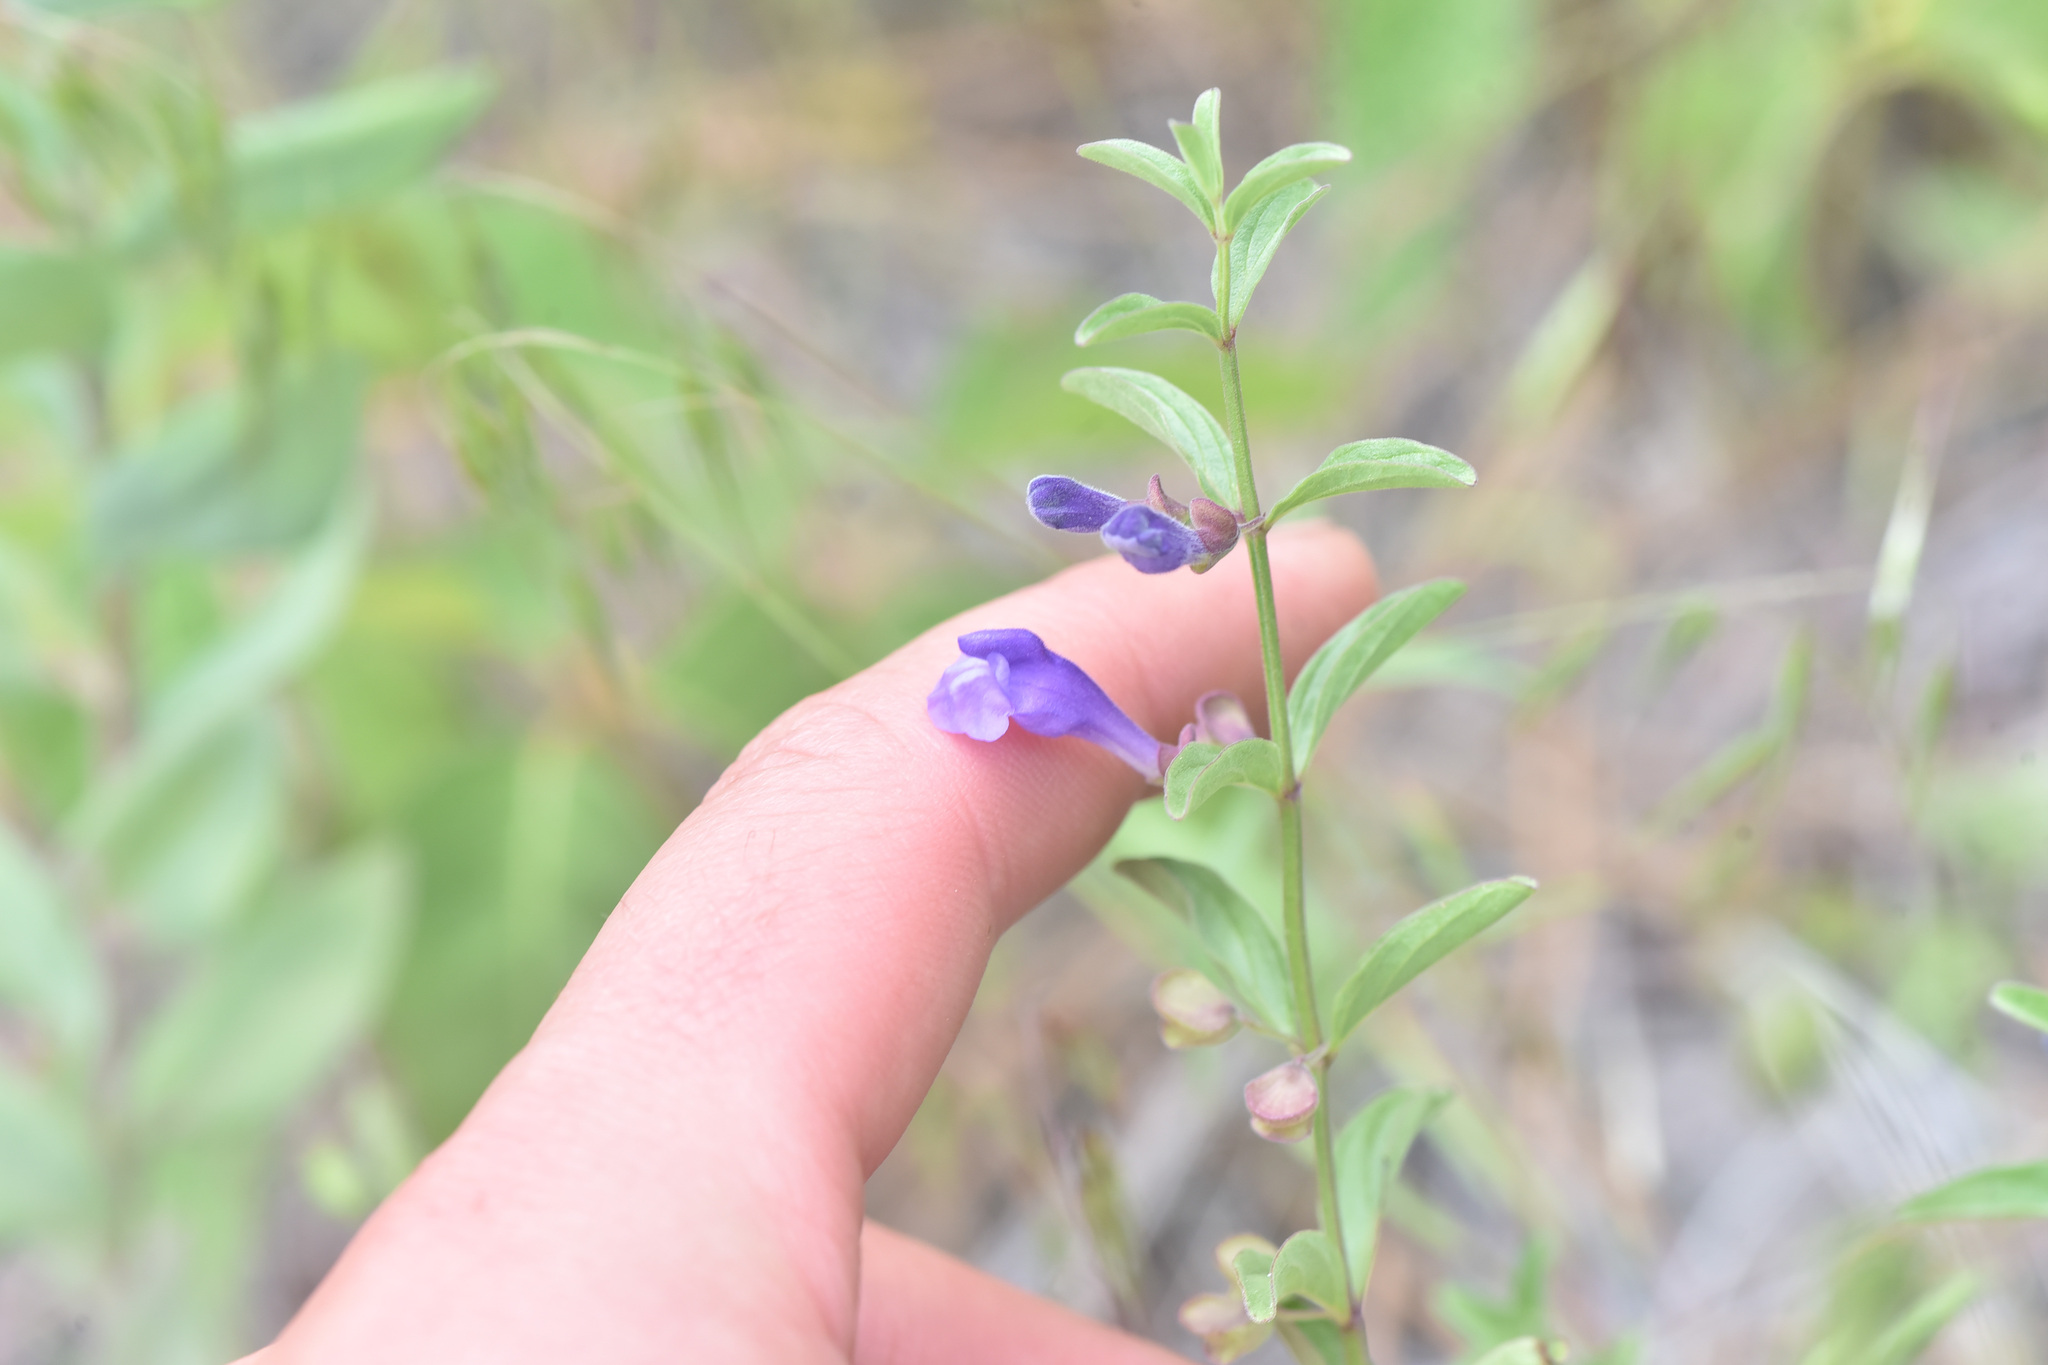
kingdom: Plantae
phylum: Tracheophyta
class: Magnoliopsida
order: Lamiales
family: Lamiaceae
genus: Scutellaria
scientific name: Scutellaria angustifolia
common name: Narrow-leaved skullcap
